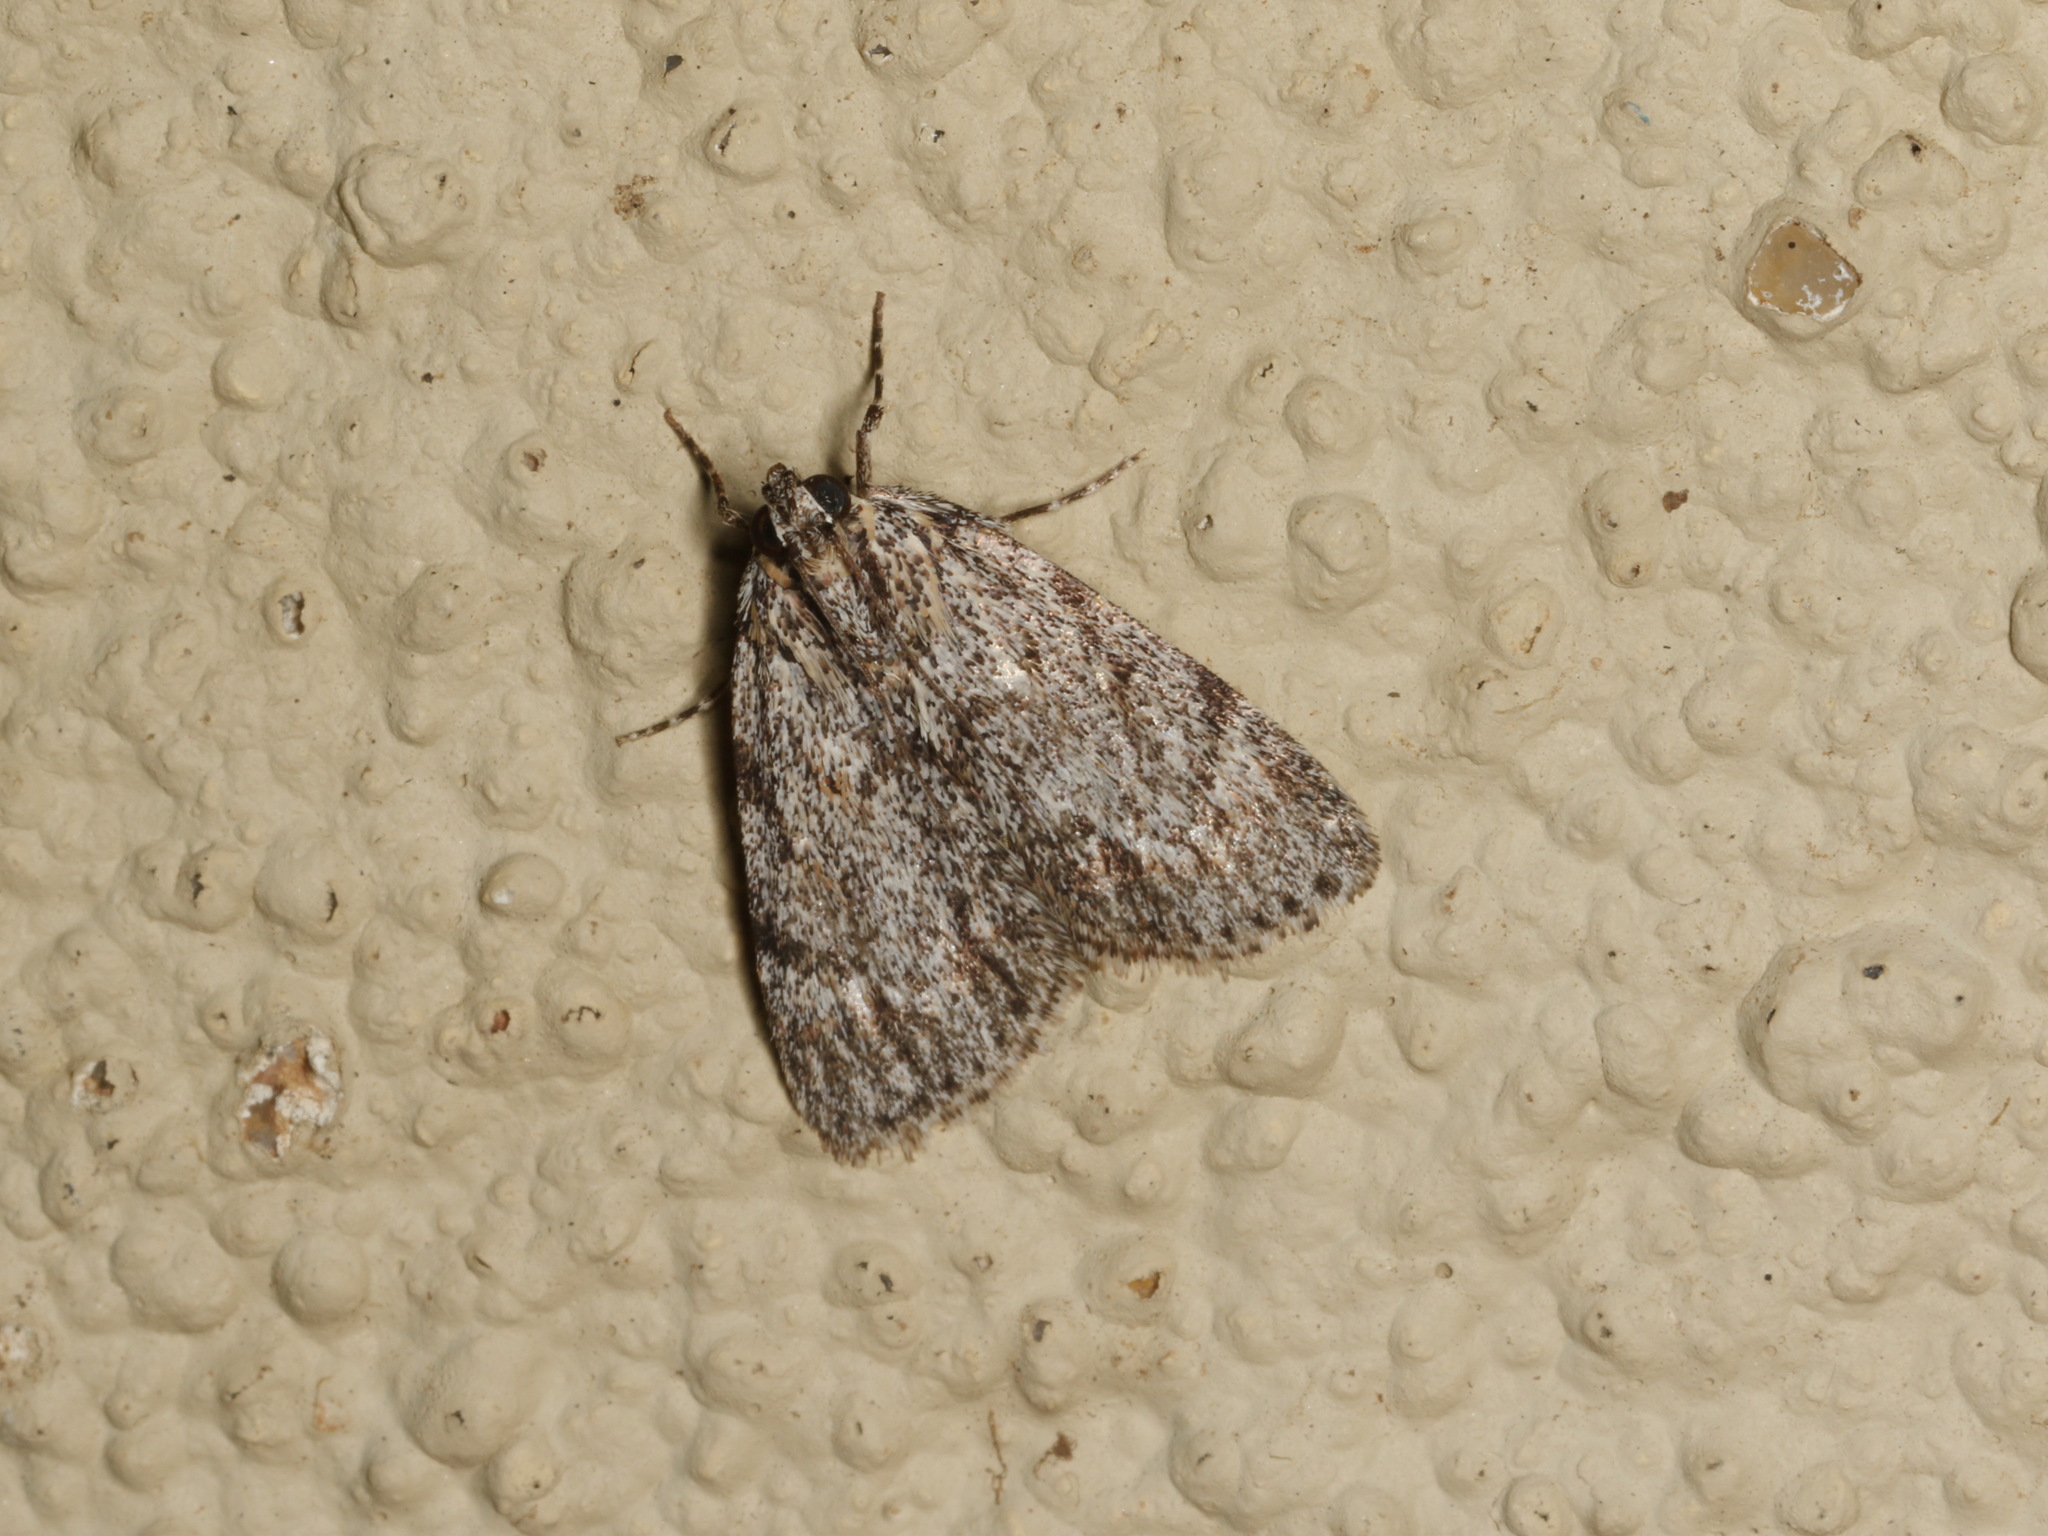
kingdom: Animalia
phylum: Arthropoda
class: Insecta
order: Lepidoptera
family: Pyralidae
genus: Spectrotrota
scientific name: Spectrotrota fimbrialis
